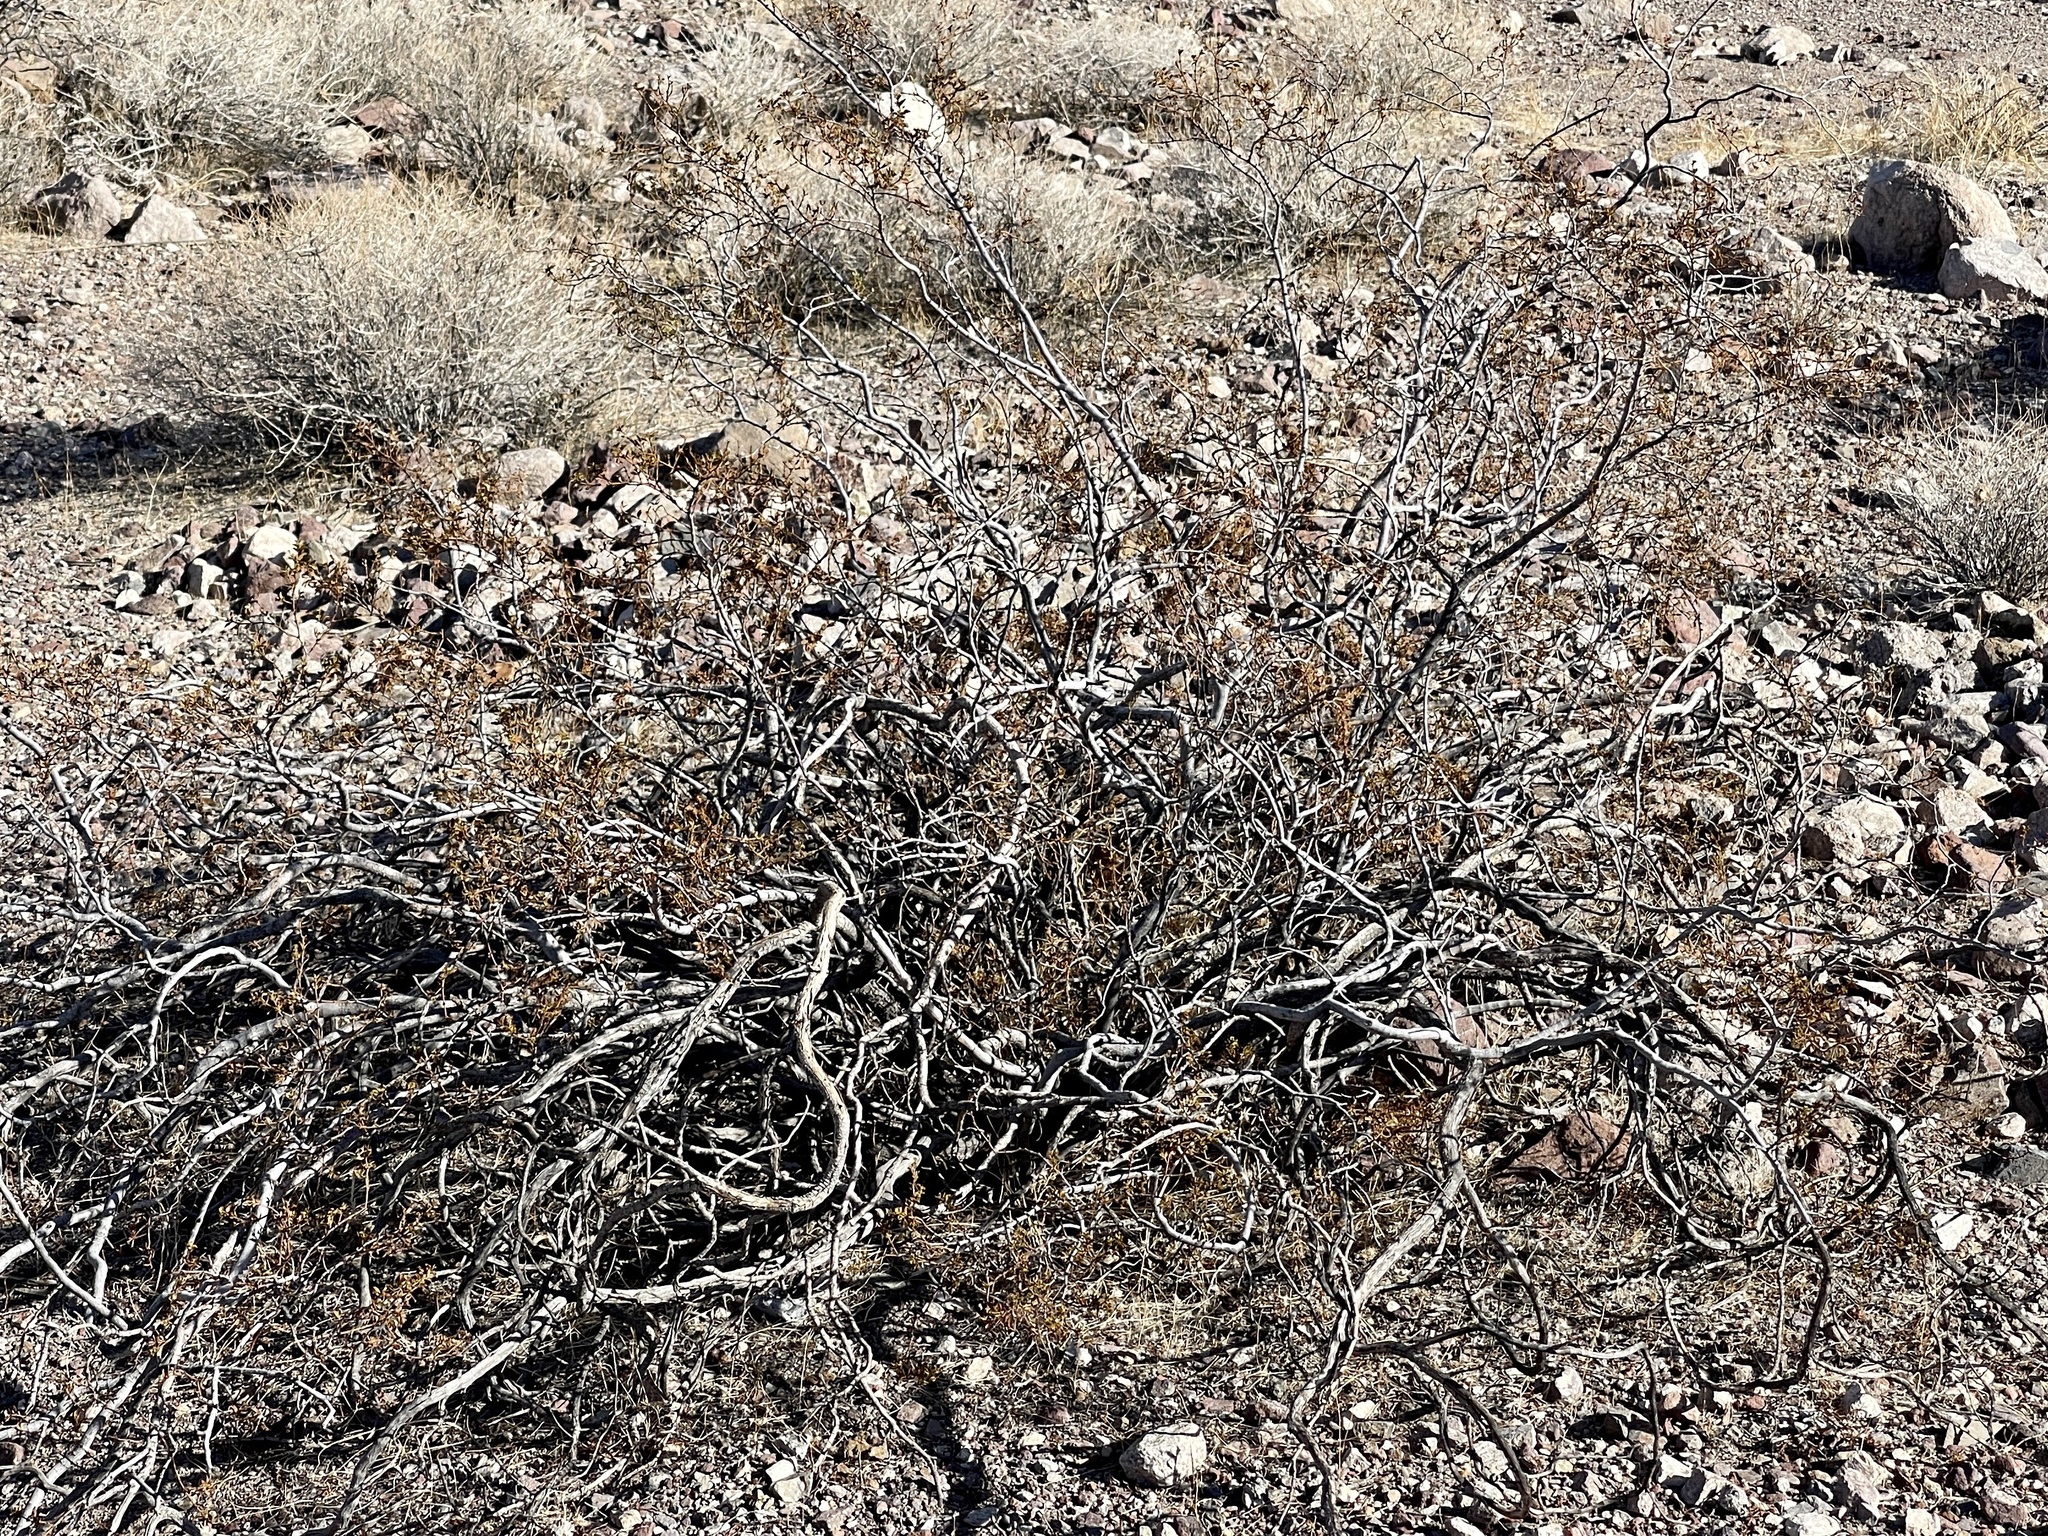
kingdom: Plantae
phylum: Tracheophyta
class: Magnoliopsida
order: Zygophyllales
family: Zygophyllaceae
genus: Larrea
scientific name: Larrea tridentata
